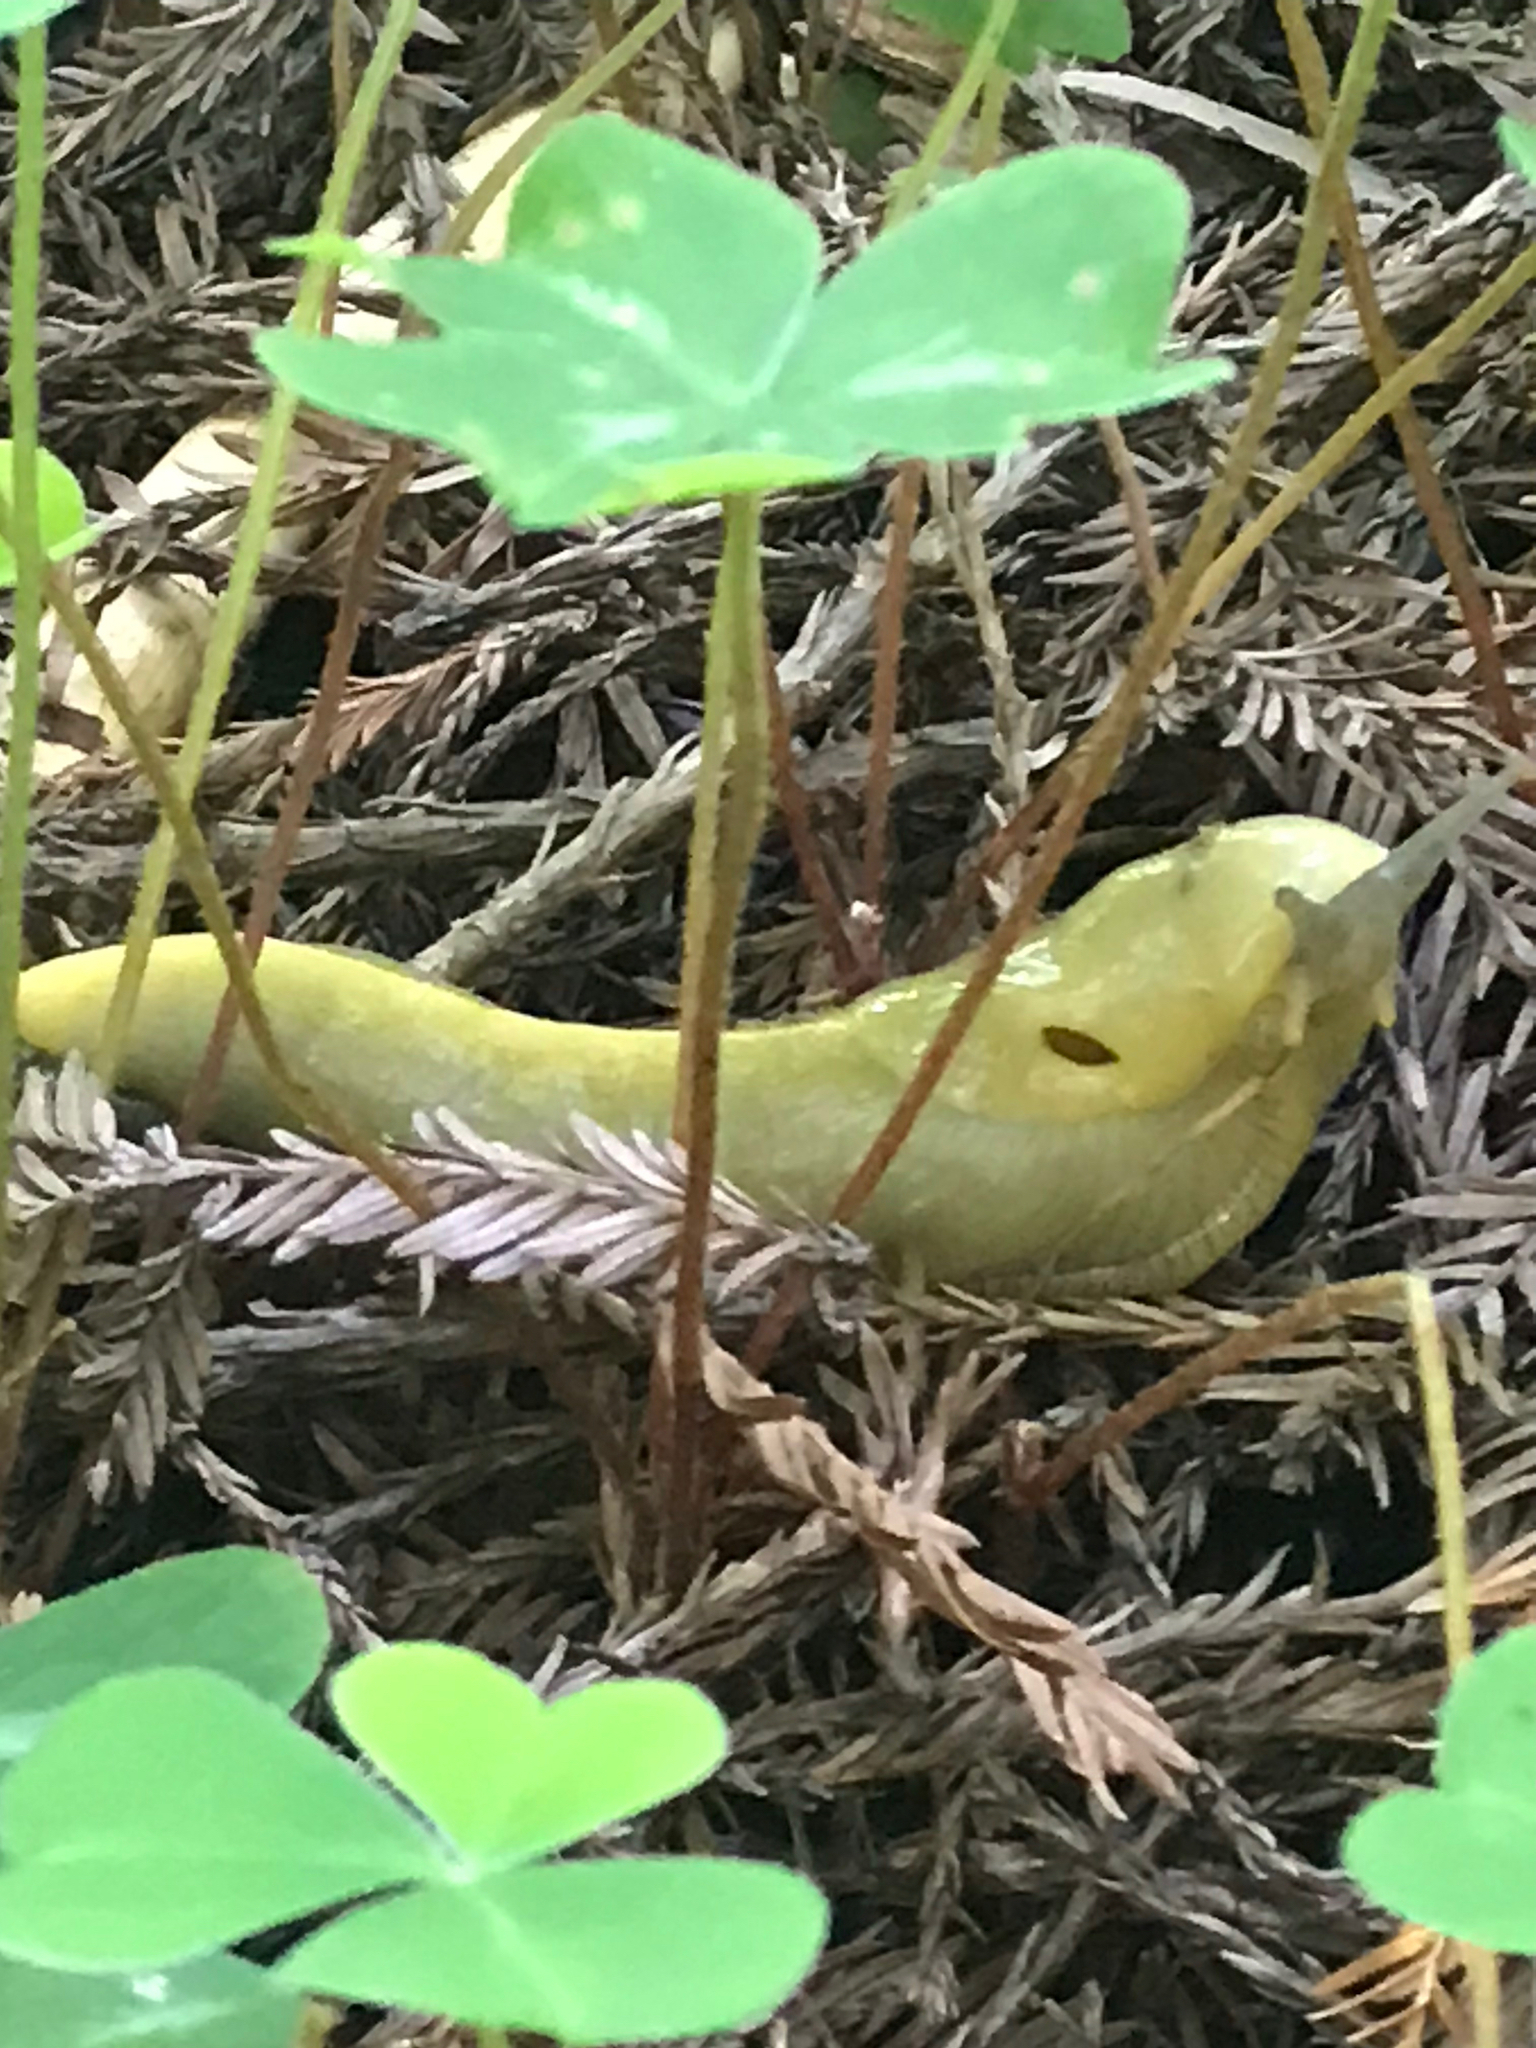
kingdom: Animalia
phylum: Mollusca
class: Gastropoda
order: Stylommatophora
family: Ariolimacidae
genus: Ariolimax
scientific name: Ariolimax columbianus
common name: Pacific banana slug
